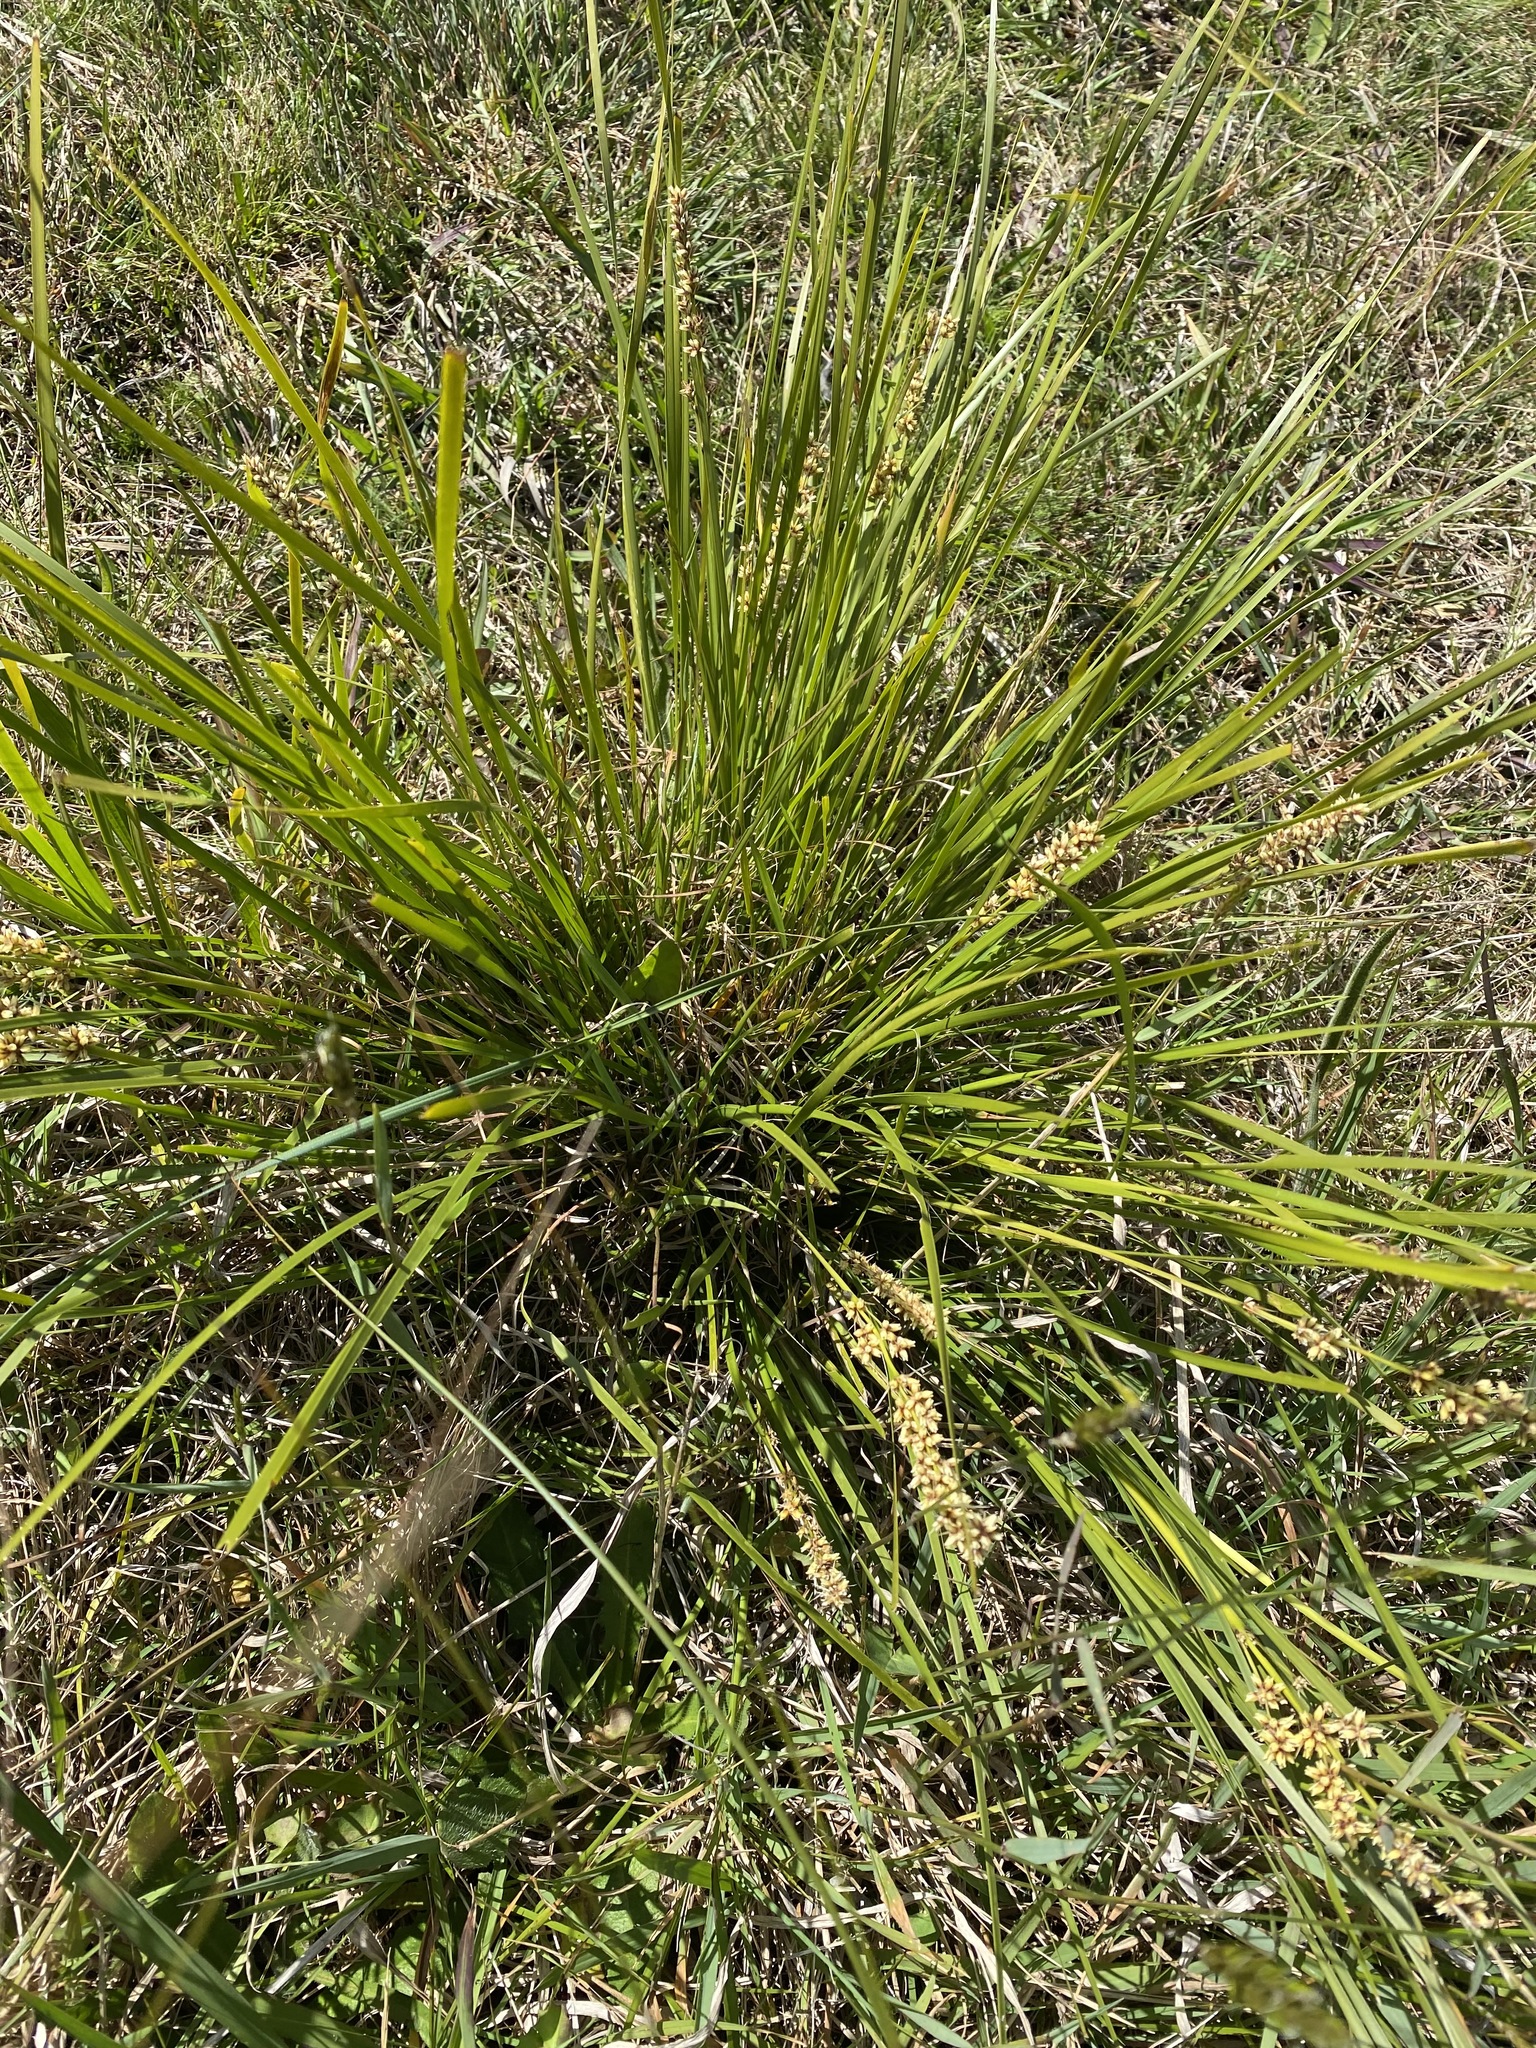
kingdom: Plantae
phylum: Tracheophyta
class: Liliopsida
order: Asparagales
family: Asparagaceae
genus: Lomandra
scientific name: Lomandra longifolia
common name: Longleaf mat-rush
